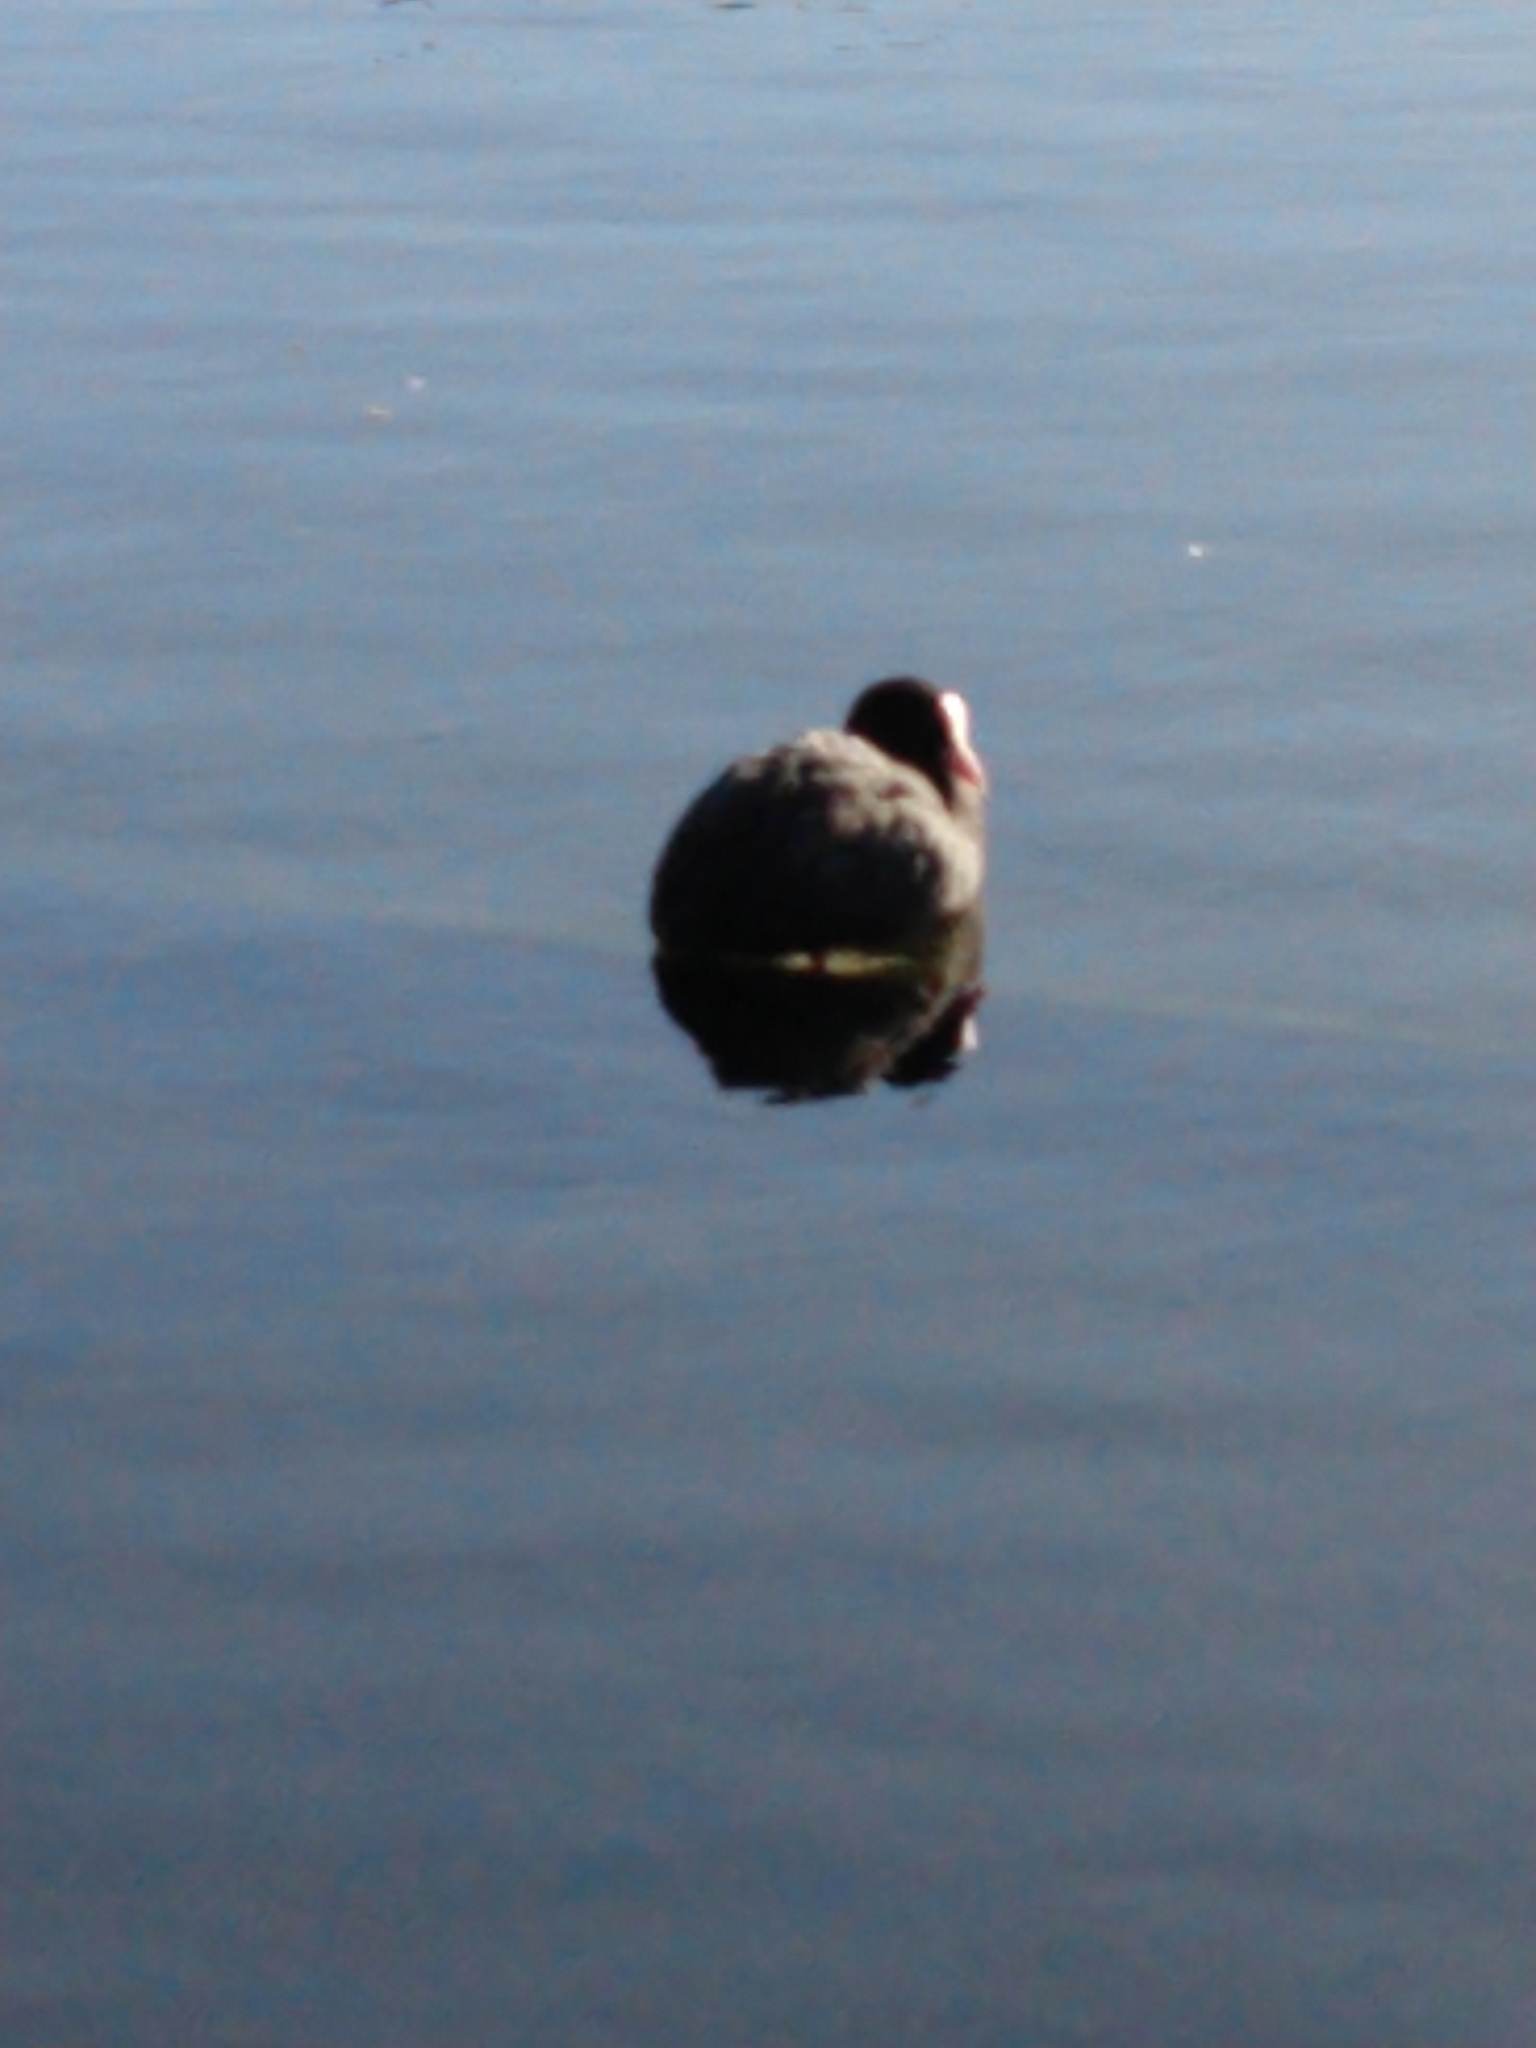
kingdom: Animalia
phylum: Chordata
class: Aves
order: Gruiformes
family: Rallidae
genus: Fulica
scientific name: Fulica atra
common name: Eurasian coot
